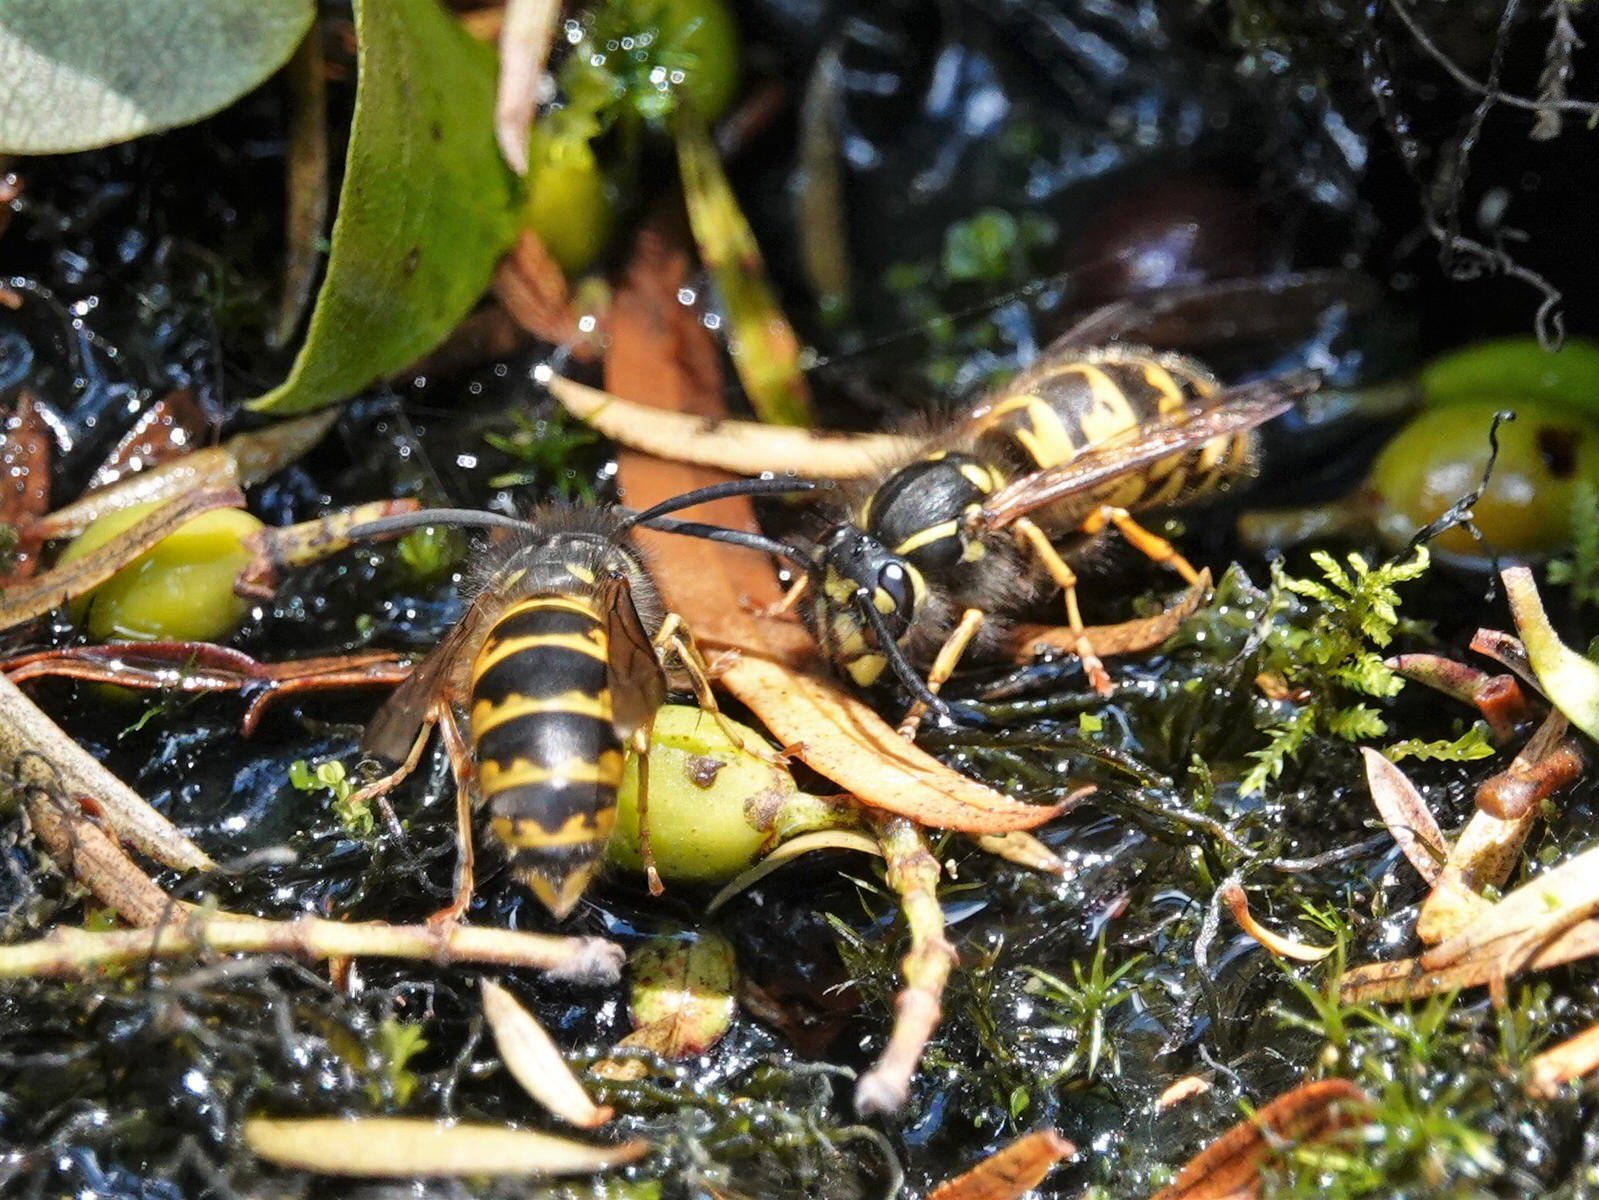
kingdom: Animalia
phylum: Arthropoda
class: Insecta
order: Hymenoptera
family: Vespidae
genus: Vespula
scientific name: Vespula vulgaris
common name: Common wasp
